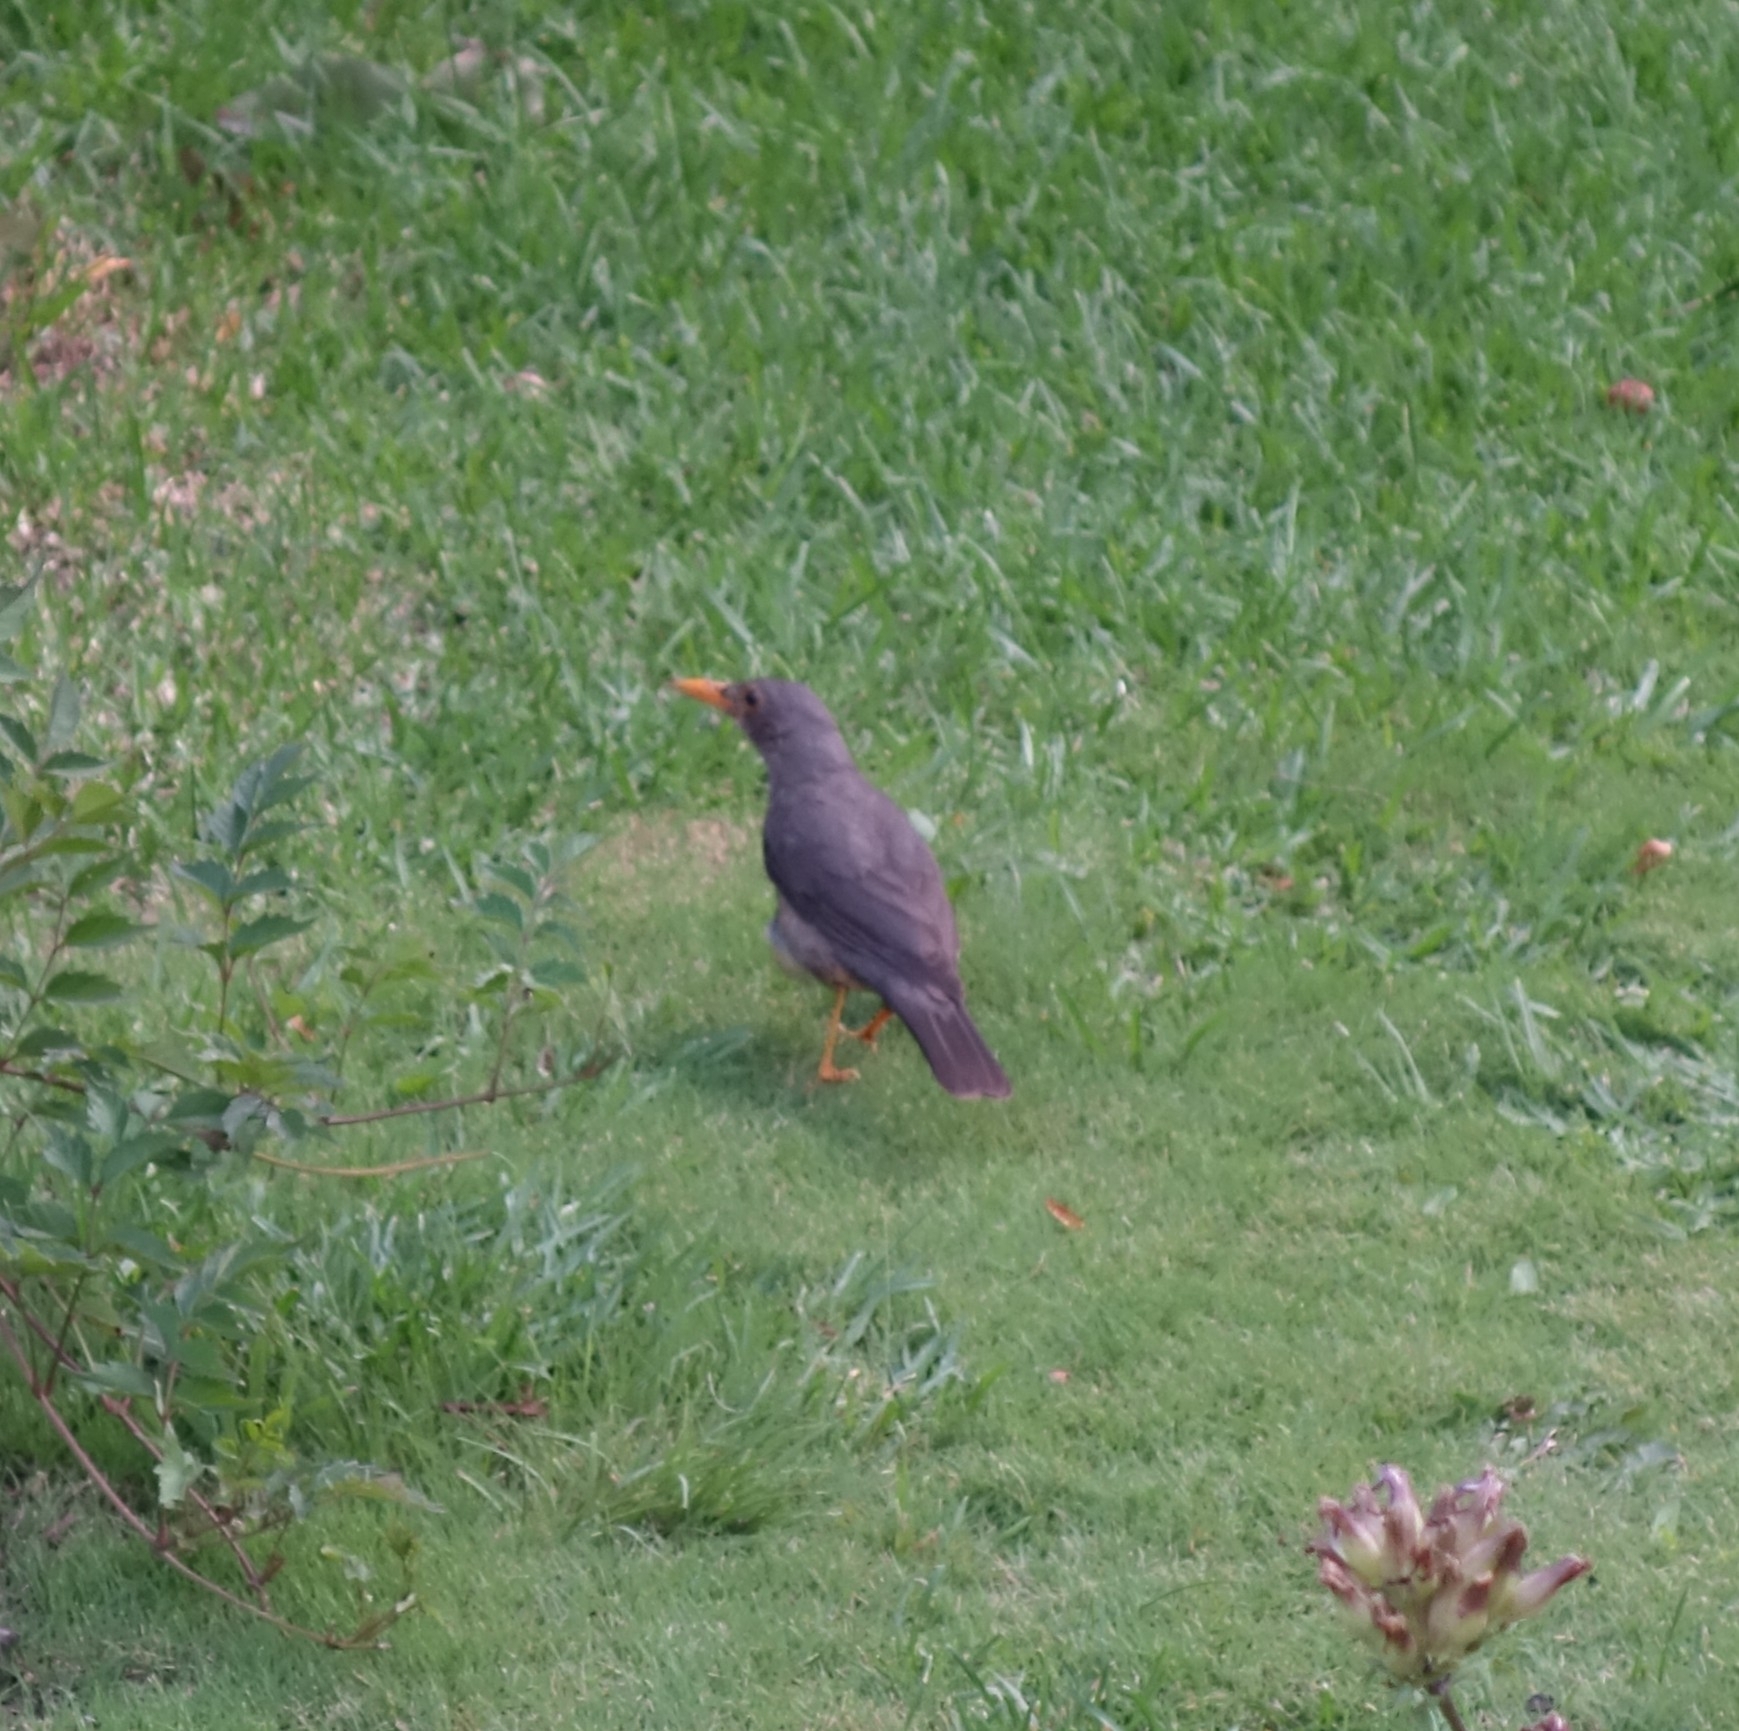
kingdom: Animalia
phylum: Chordata
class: Aves
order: Passeriformes
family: Turdidae
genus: Turdus
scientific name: Turdus smithi
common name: Karoo thrush
